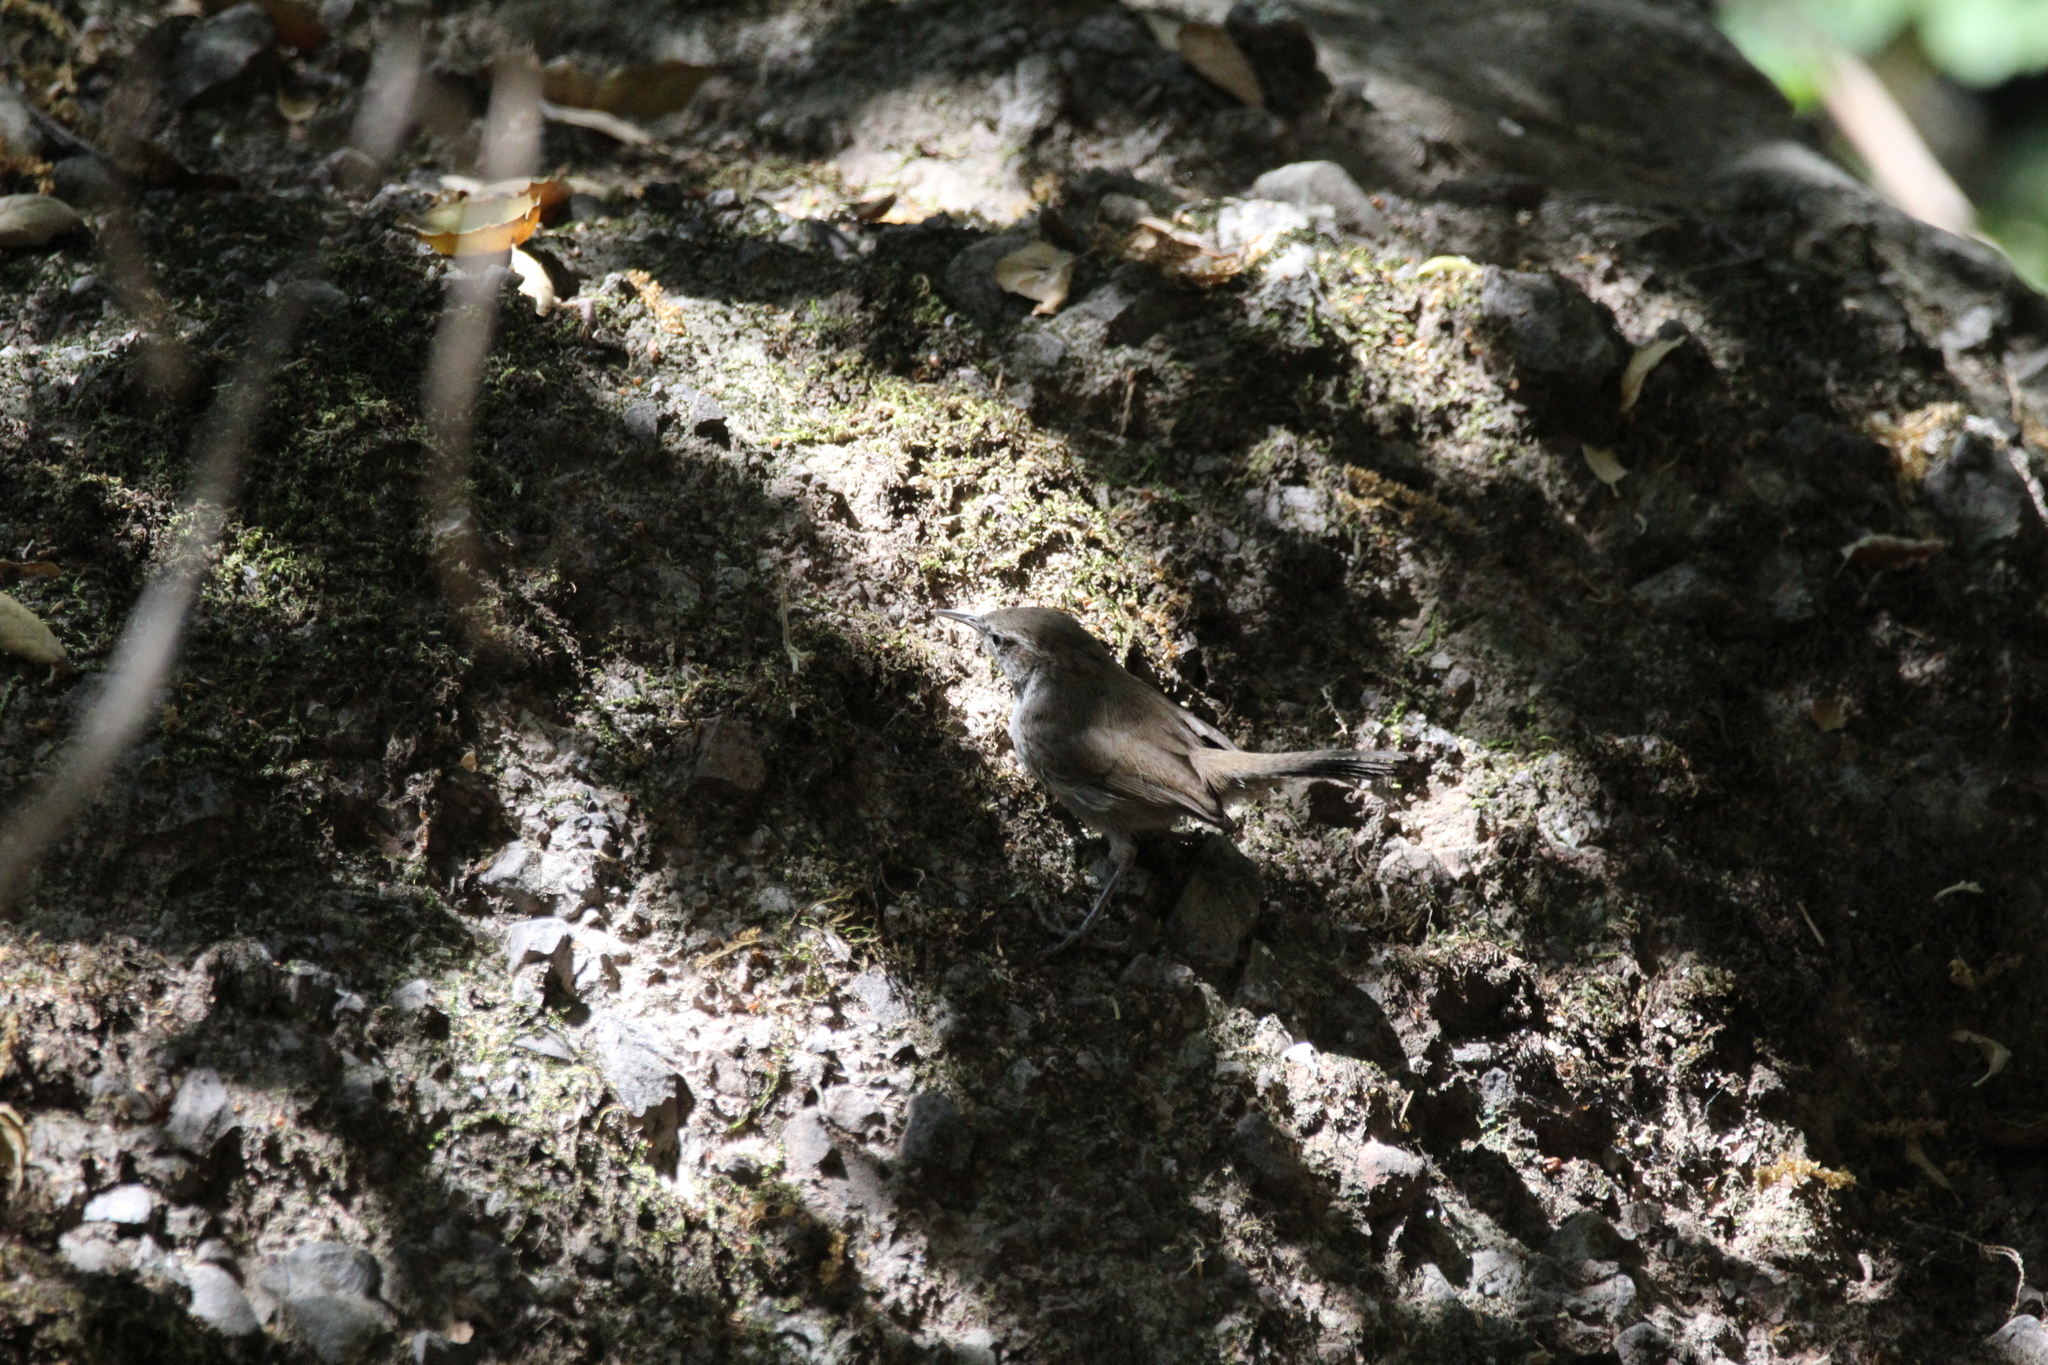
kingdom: Animalia
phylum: Chordata
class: Aves
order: Passeriformes
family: Troglodytidae
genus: Thryomanes
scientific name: Thryomanes bewickii
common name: Bewick's wren
